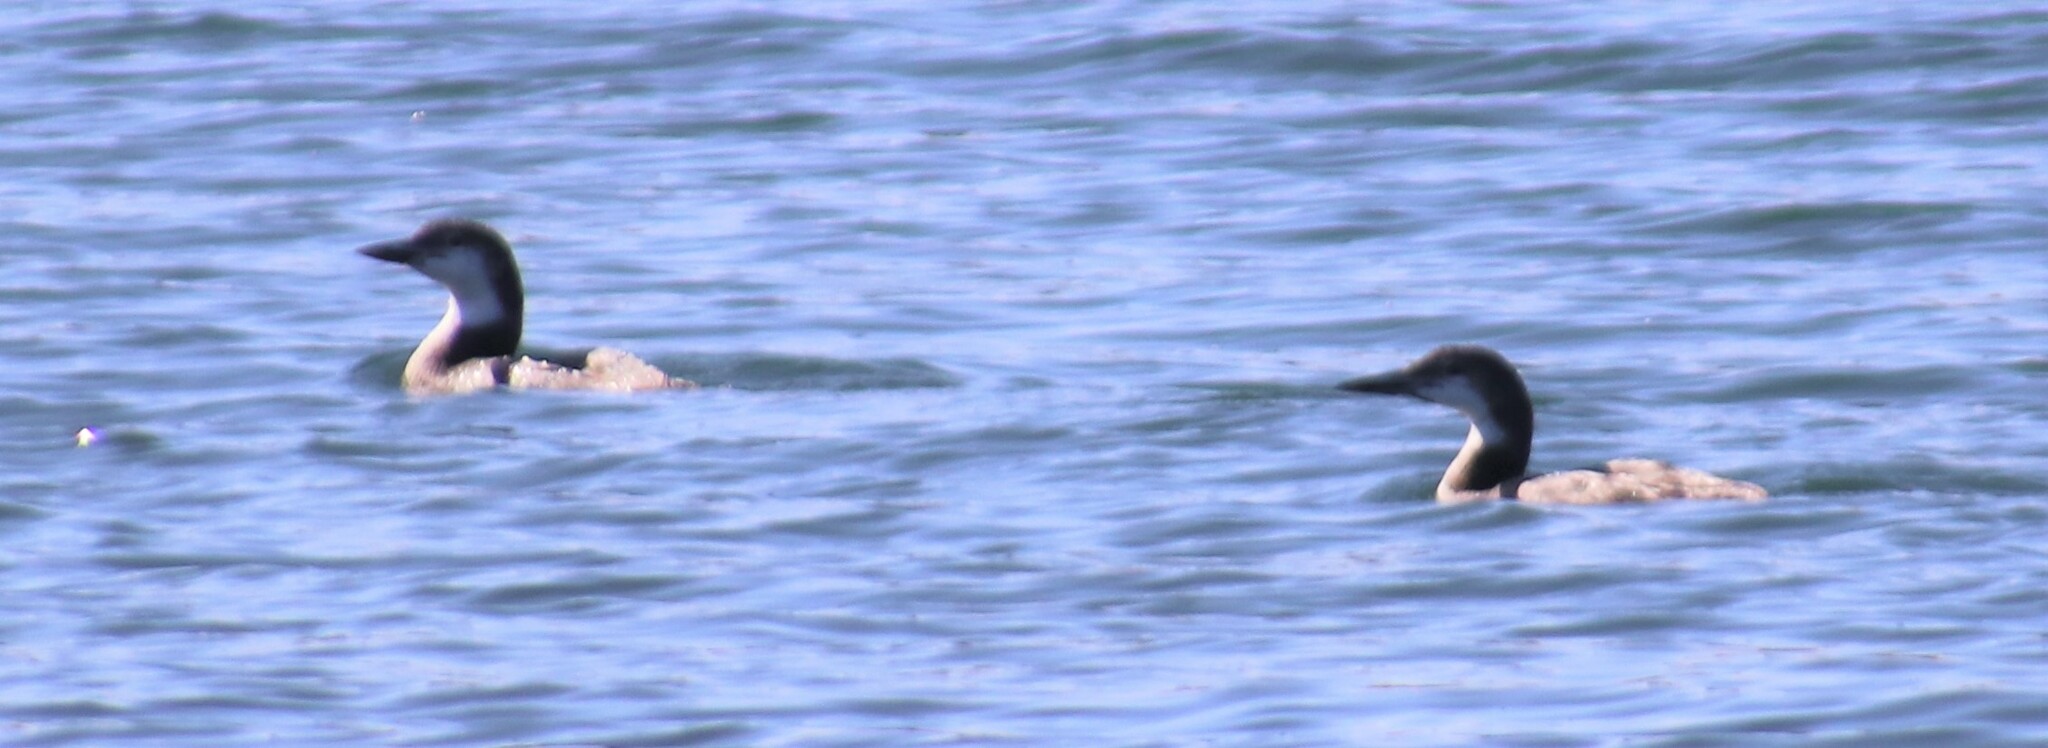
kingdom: Animalia
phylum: Chordata
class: Aves
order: Gaviiformes
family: Gaviidae
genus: Gavia
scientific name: Gavia immer
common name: Common loon
